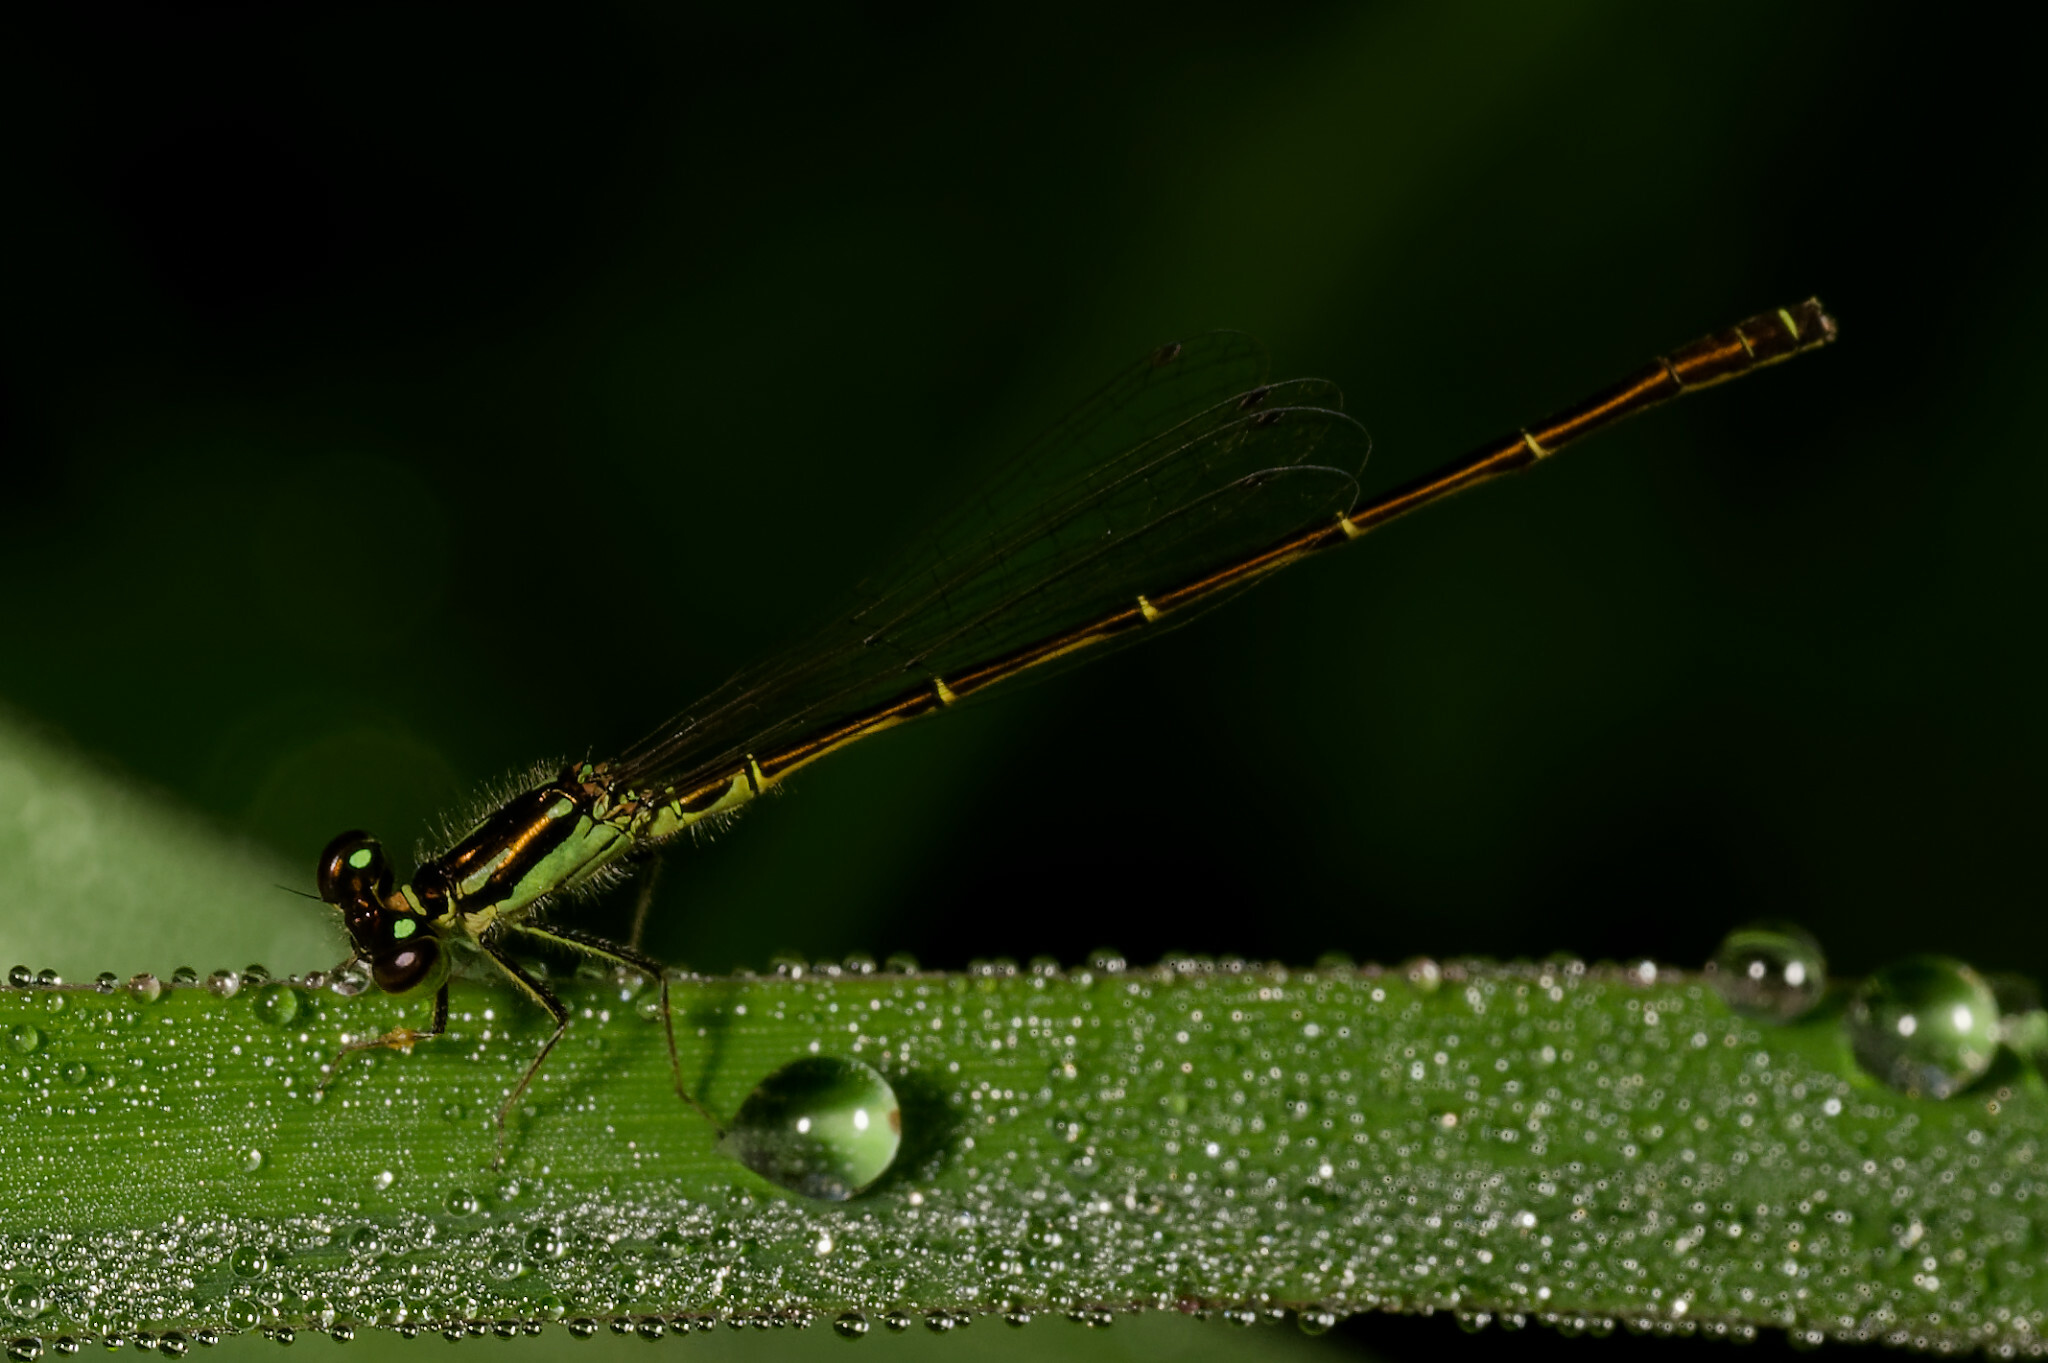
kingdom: Animalia
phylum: Arthropoda
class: Insecta
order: Odonata
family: Coenagrionidae
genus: Ischnura
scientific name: Ischnura posita
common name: Fragile forktail
